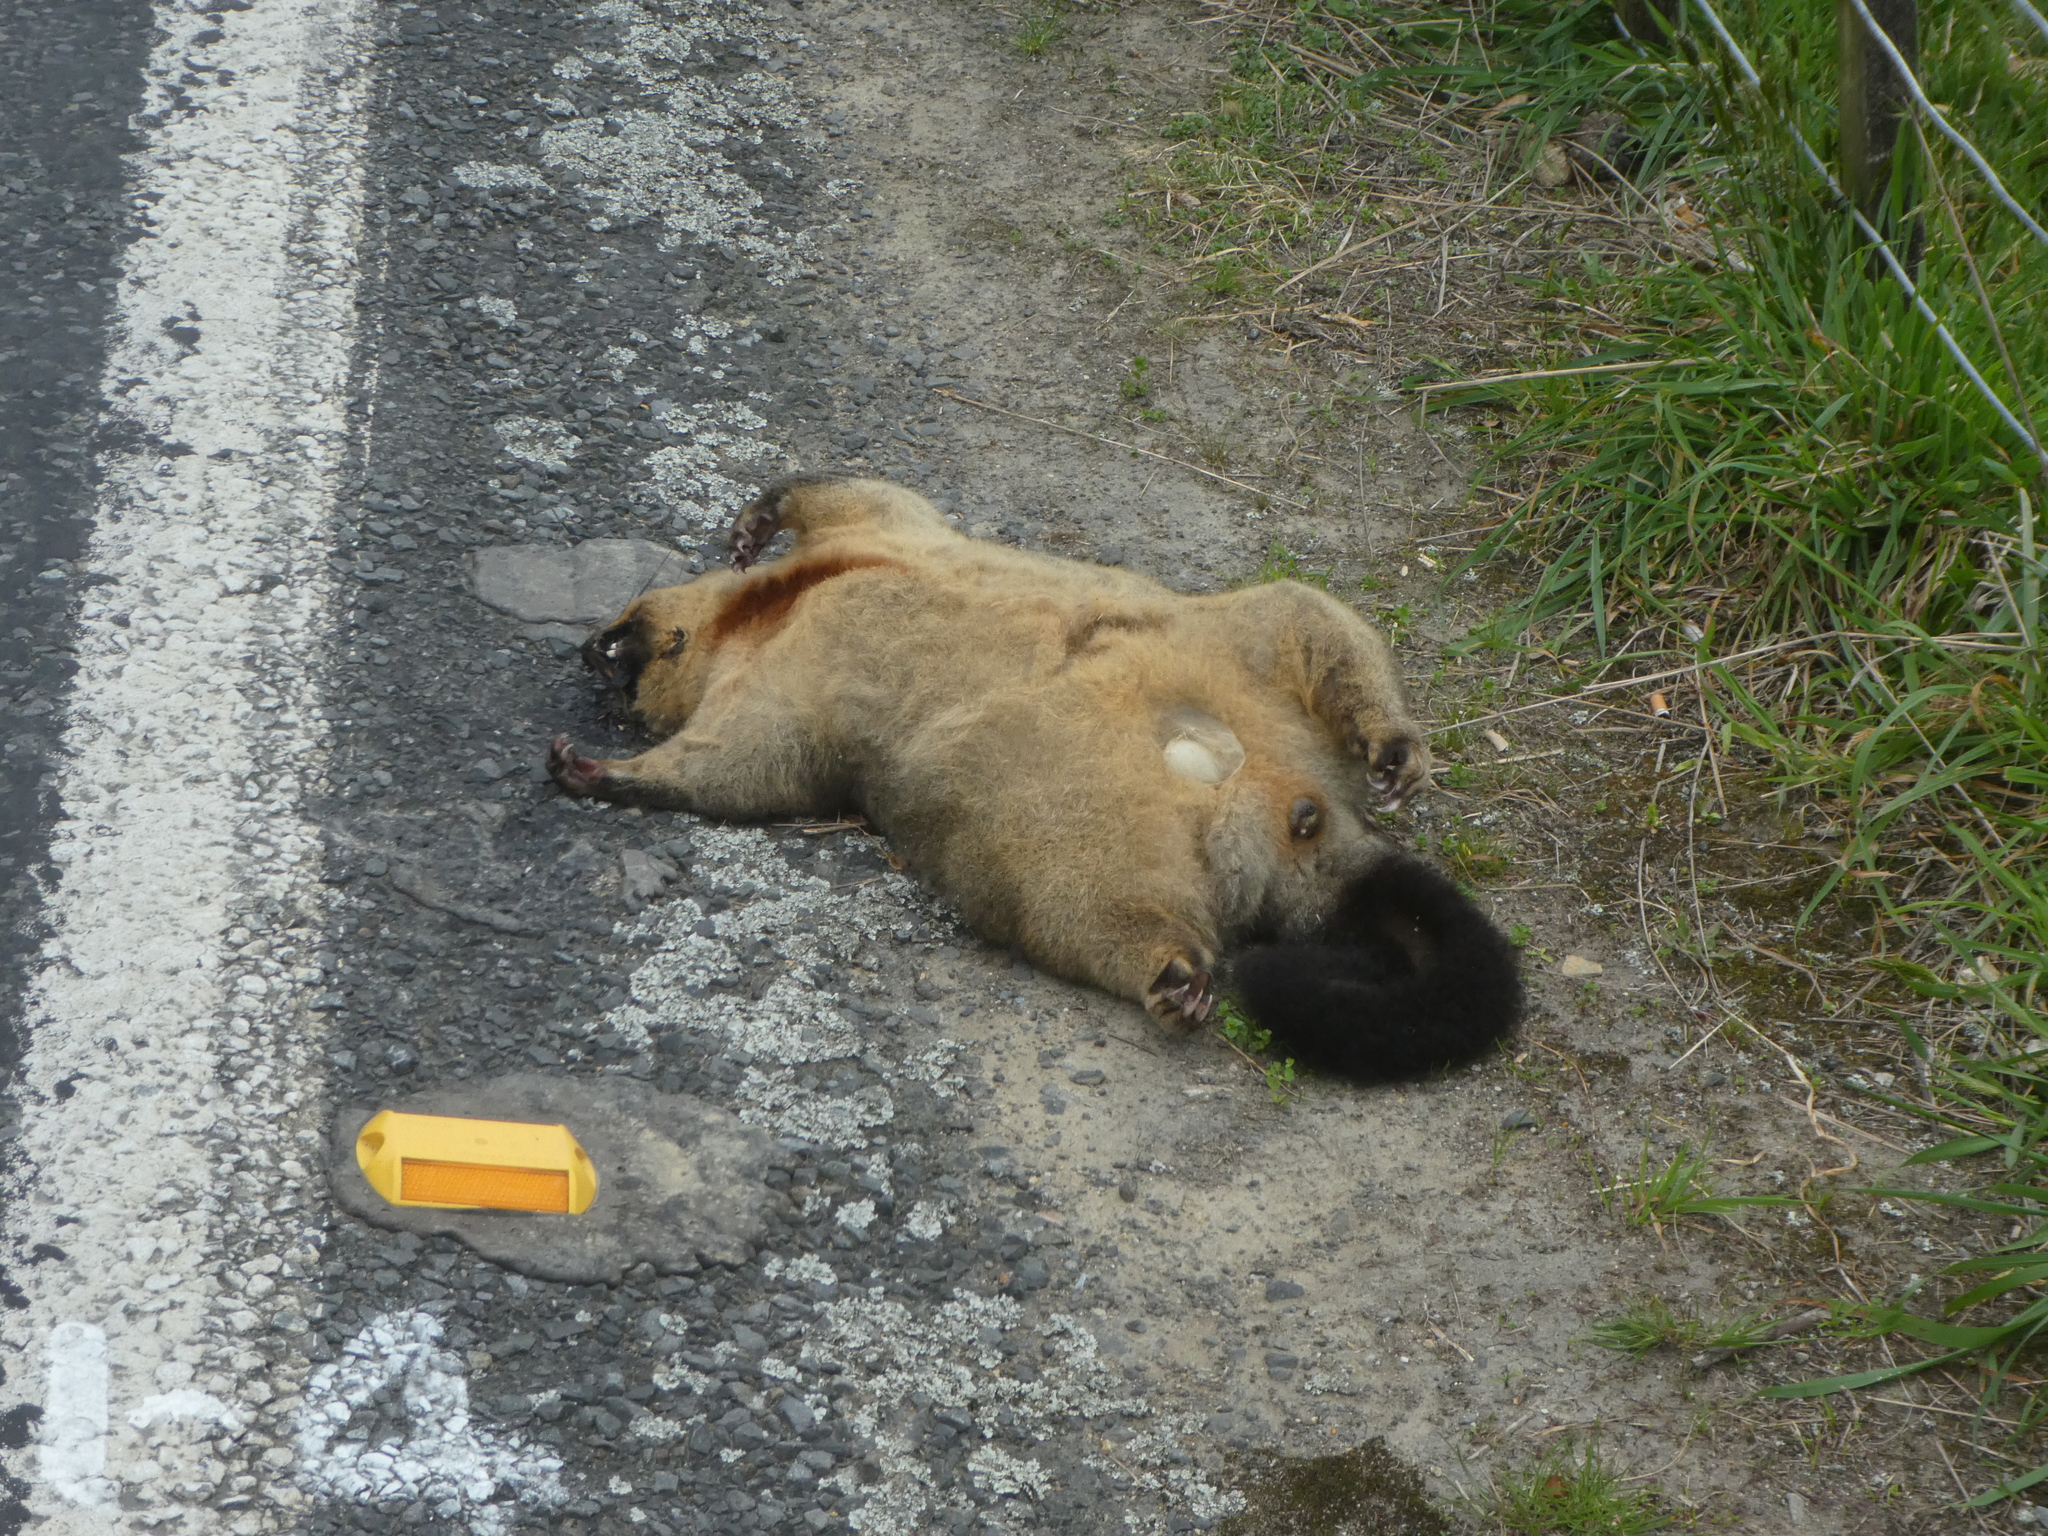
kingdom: Animalia
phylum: Chordata
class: Mammalia
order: Diprotodontia
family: Phalangeridae
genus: Trichosurus
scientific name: Trichosurus vulpecula
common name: Common brushtail
